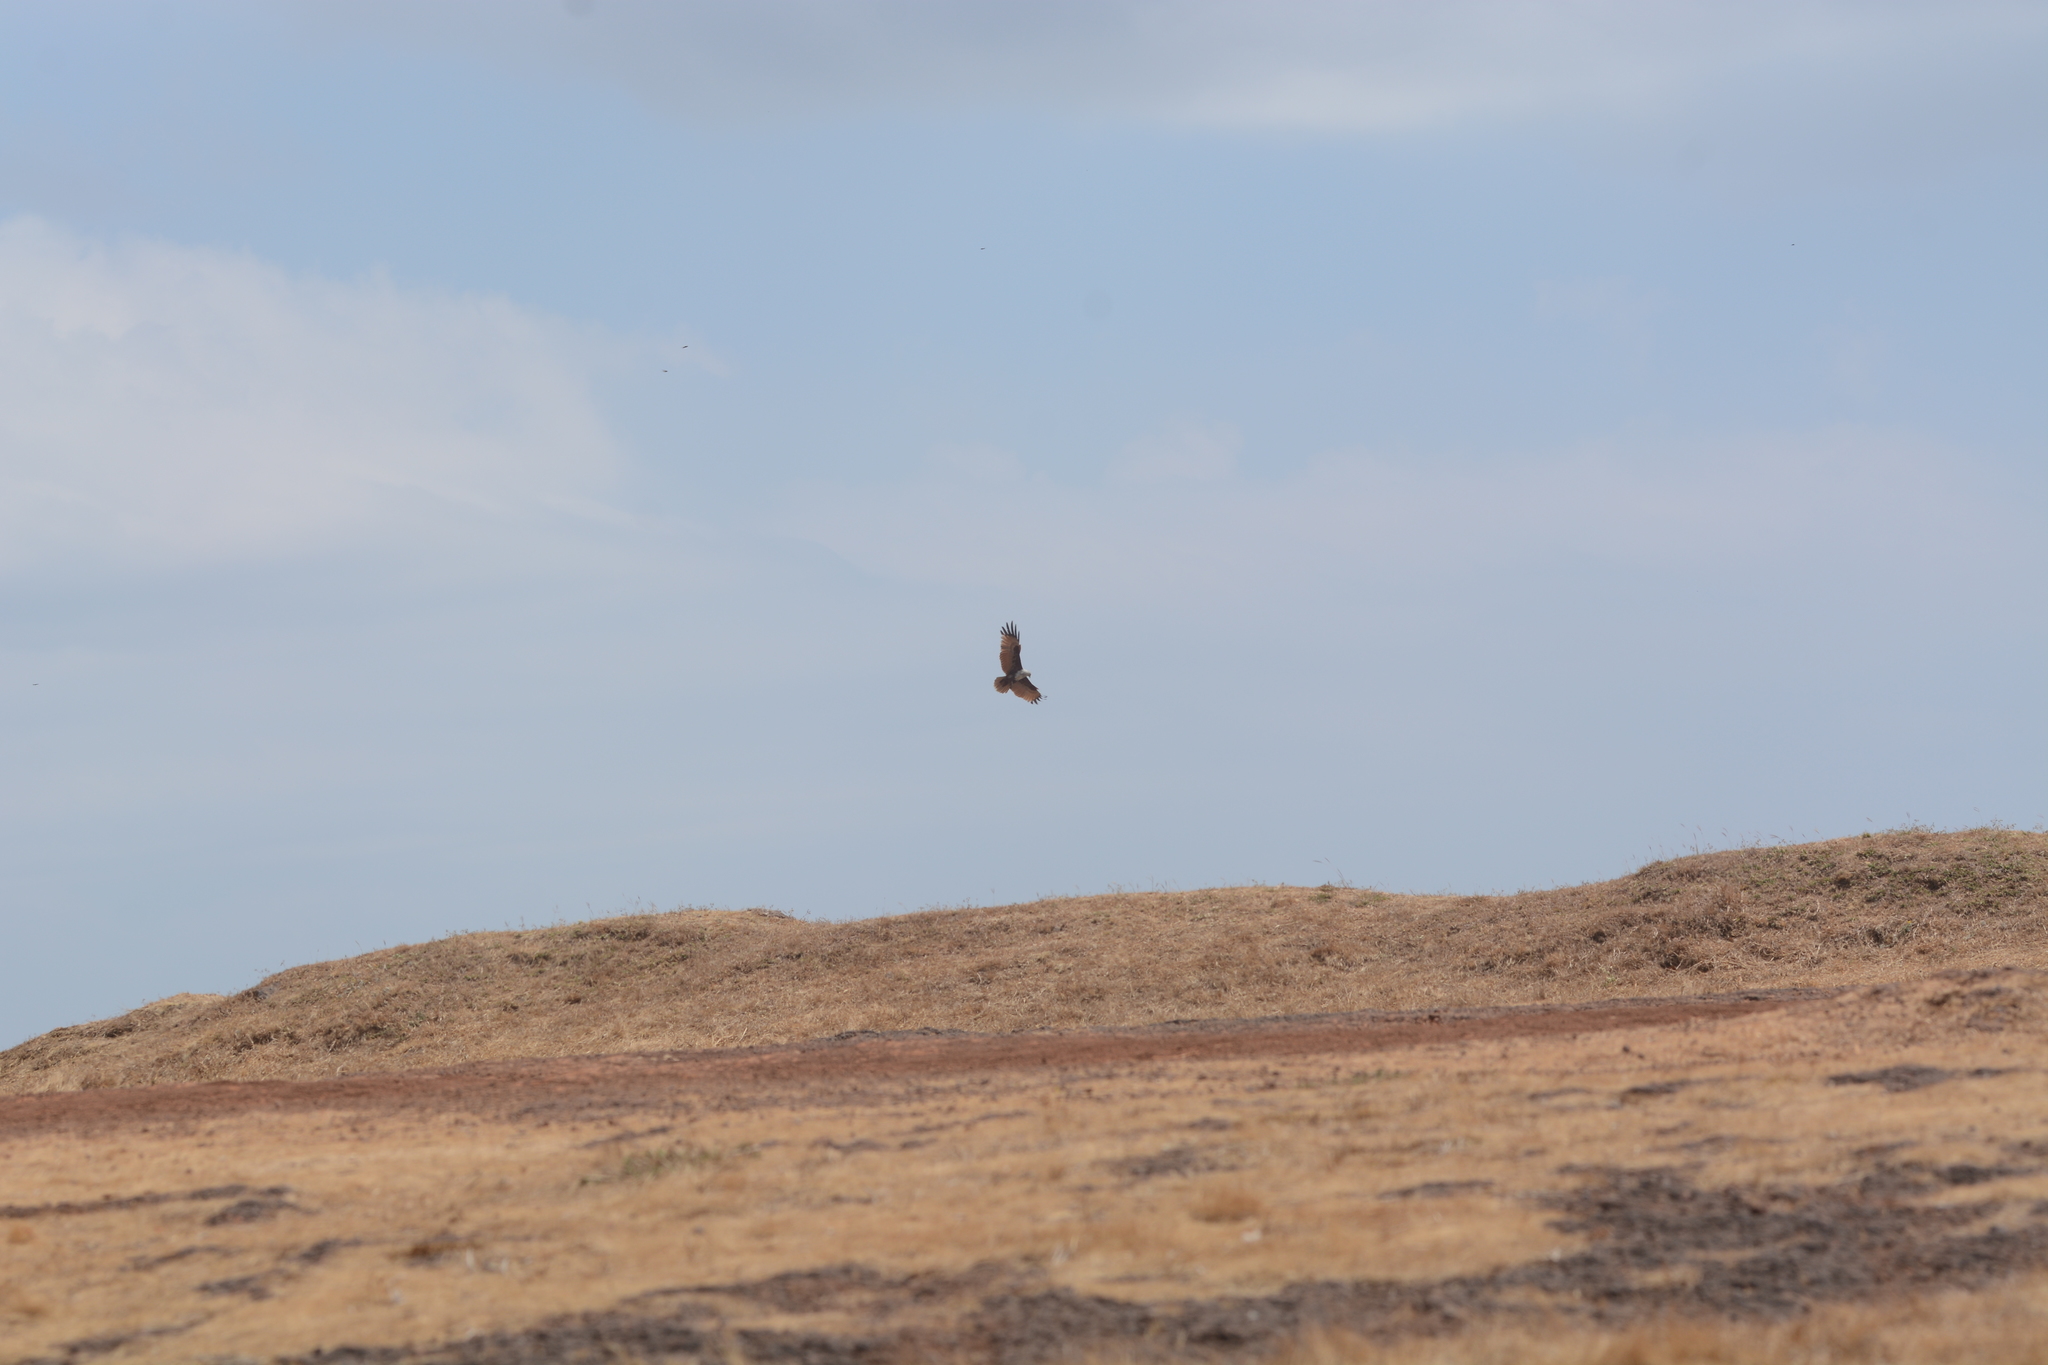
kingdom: Animalia
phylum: Chordata
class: Aves
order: Accipitriformes
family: Accipitridae
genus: Haliastur
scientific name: Haliastur indus
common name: Brahminy kite
